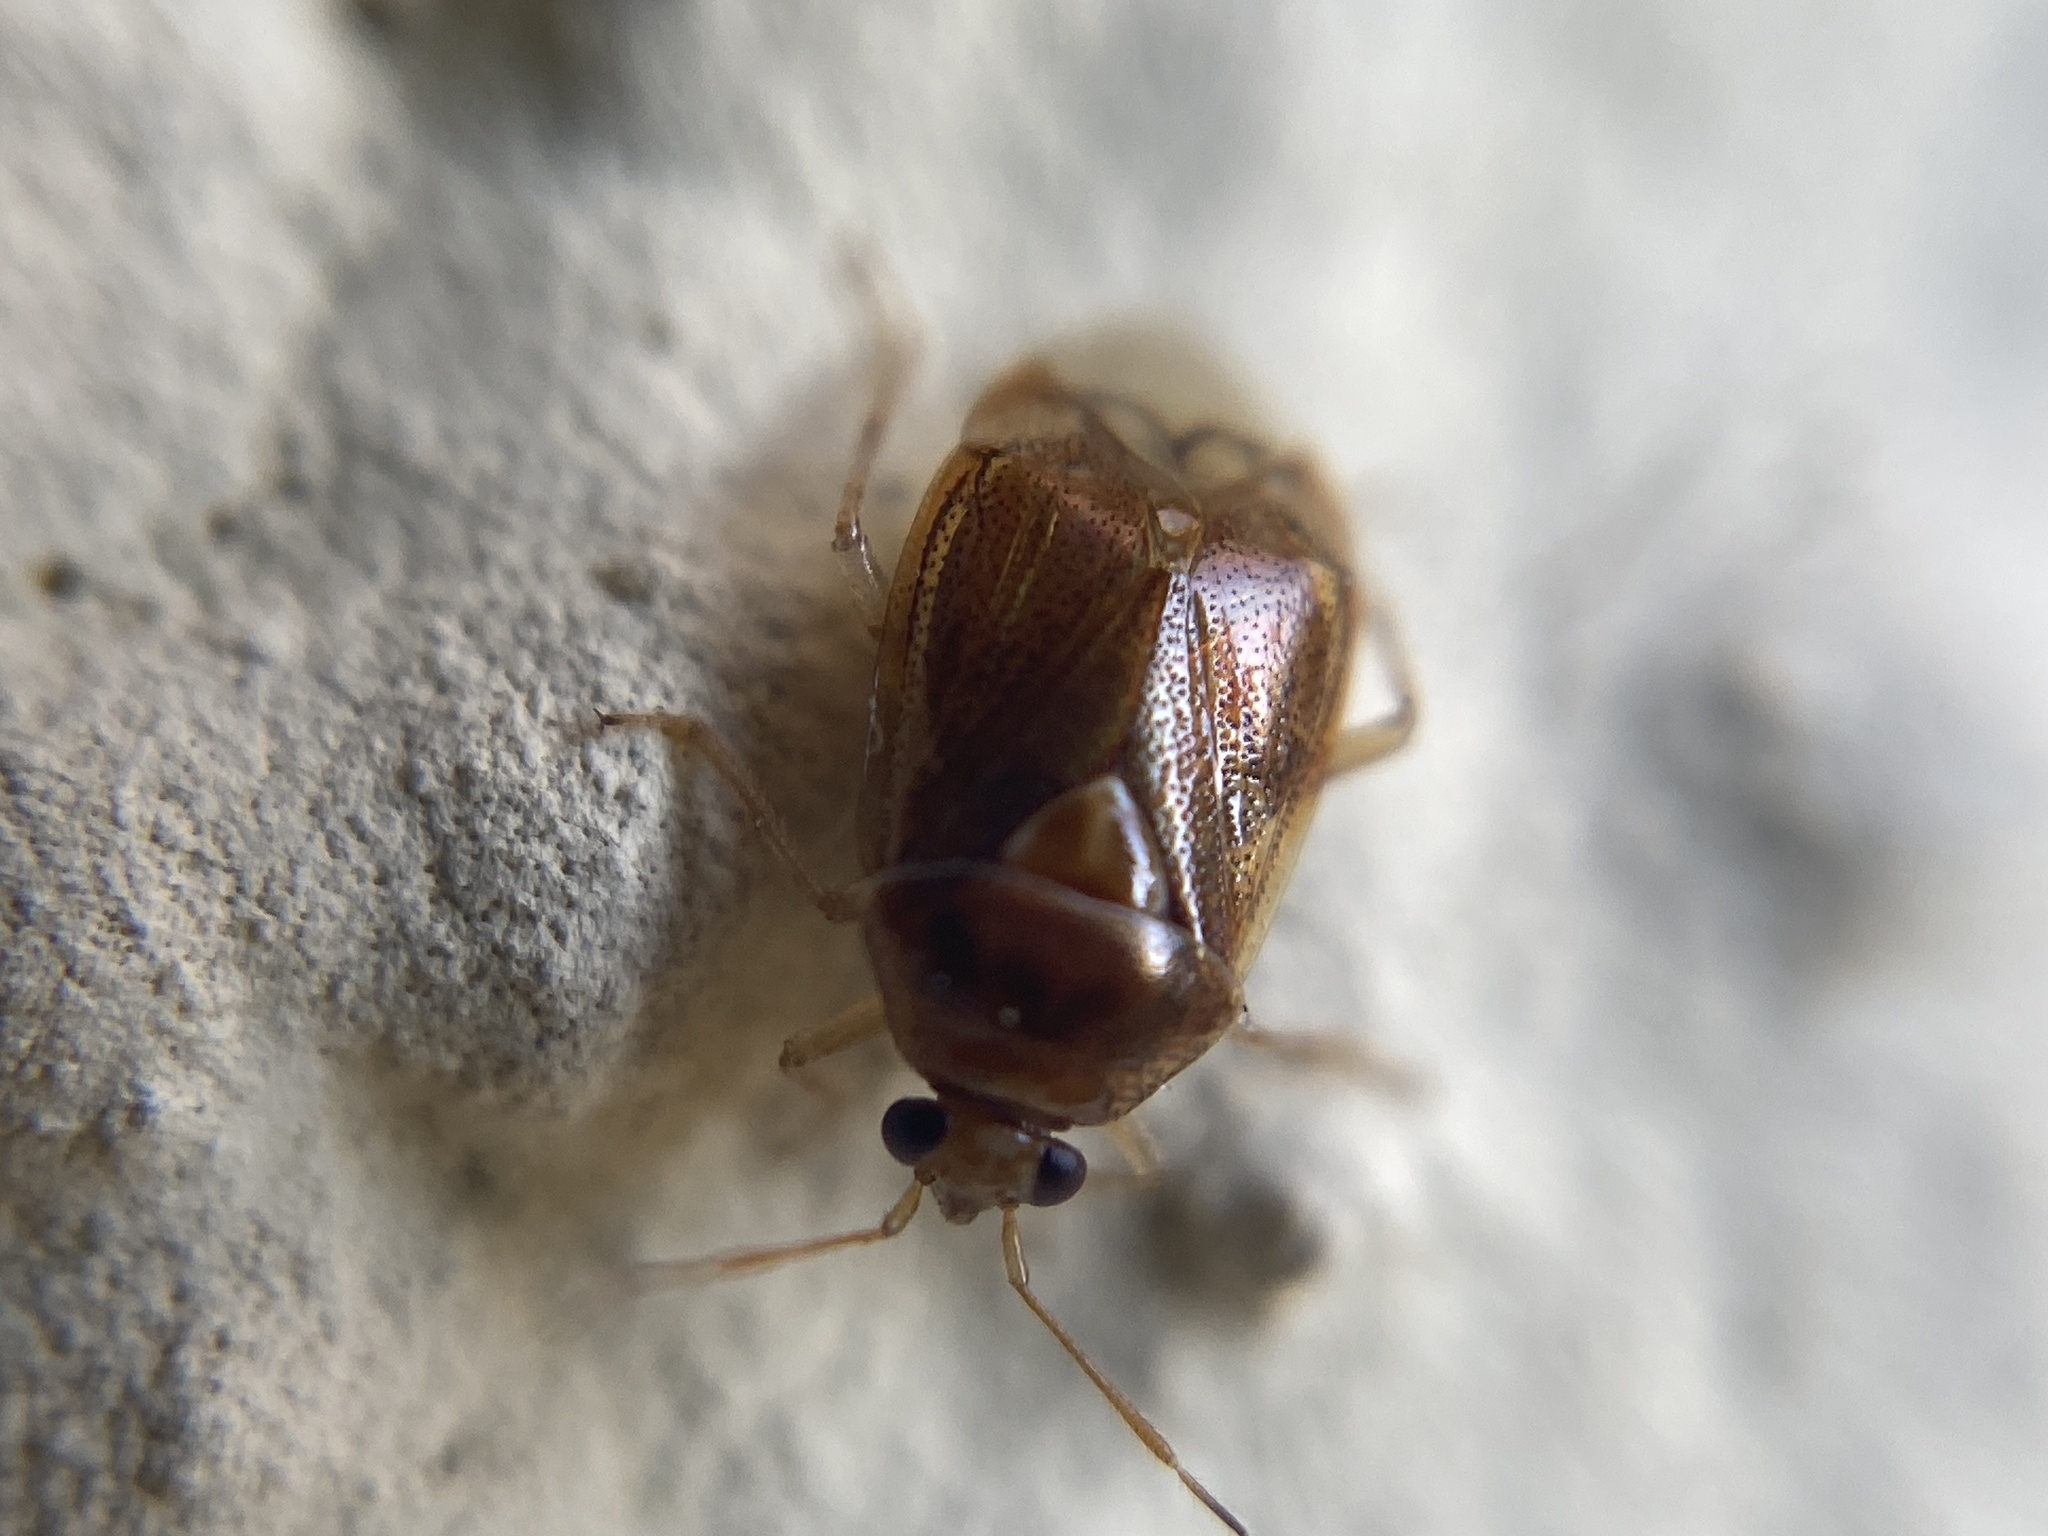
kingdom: Animalia
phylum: Arthropoda
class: Insecta
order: Hemiptera
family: Miridae
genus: Deraeocoris
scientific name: Deraeocoris lutescens
